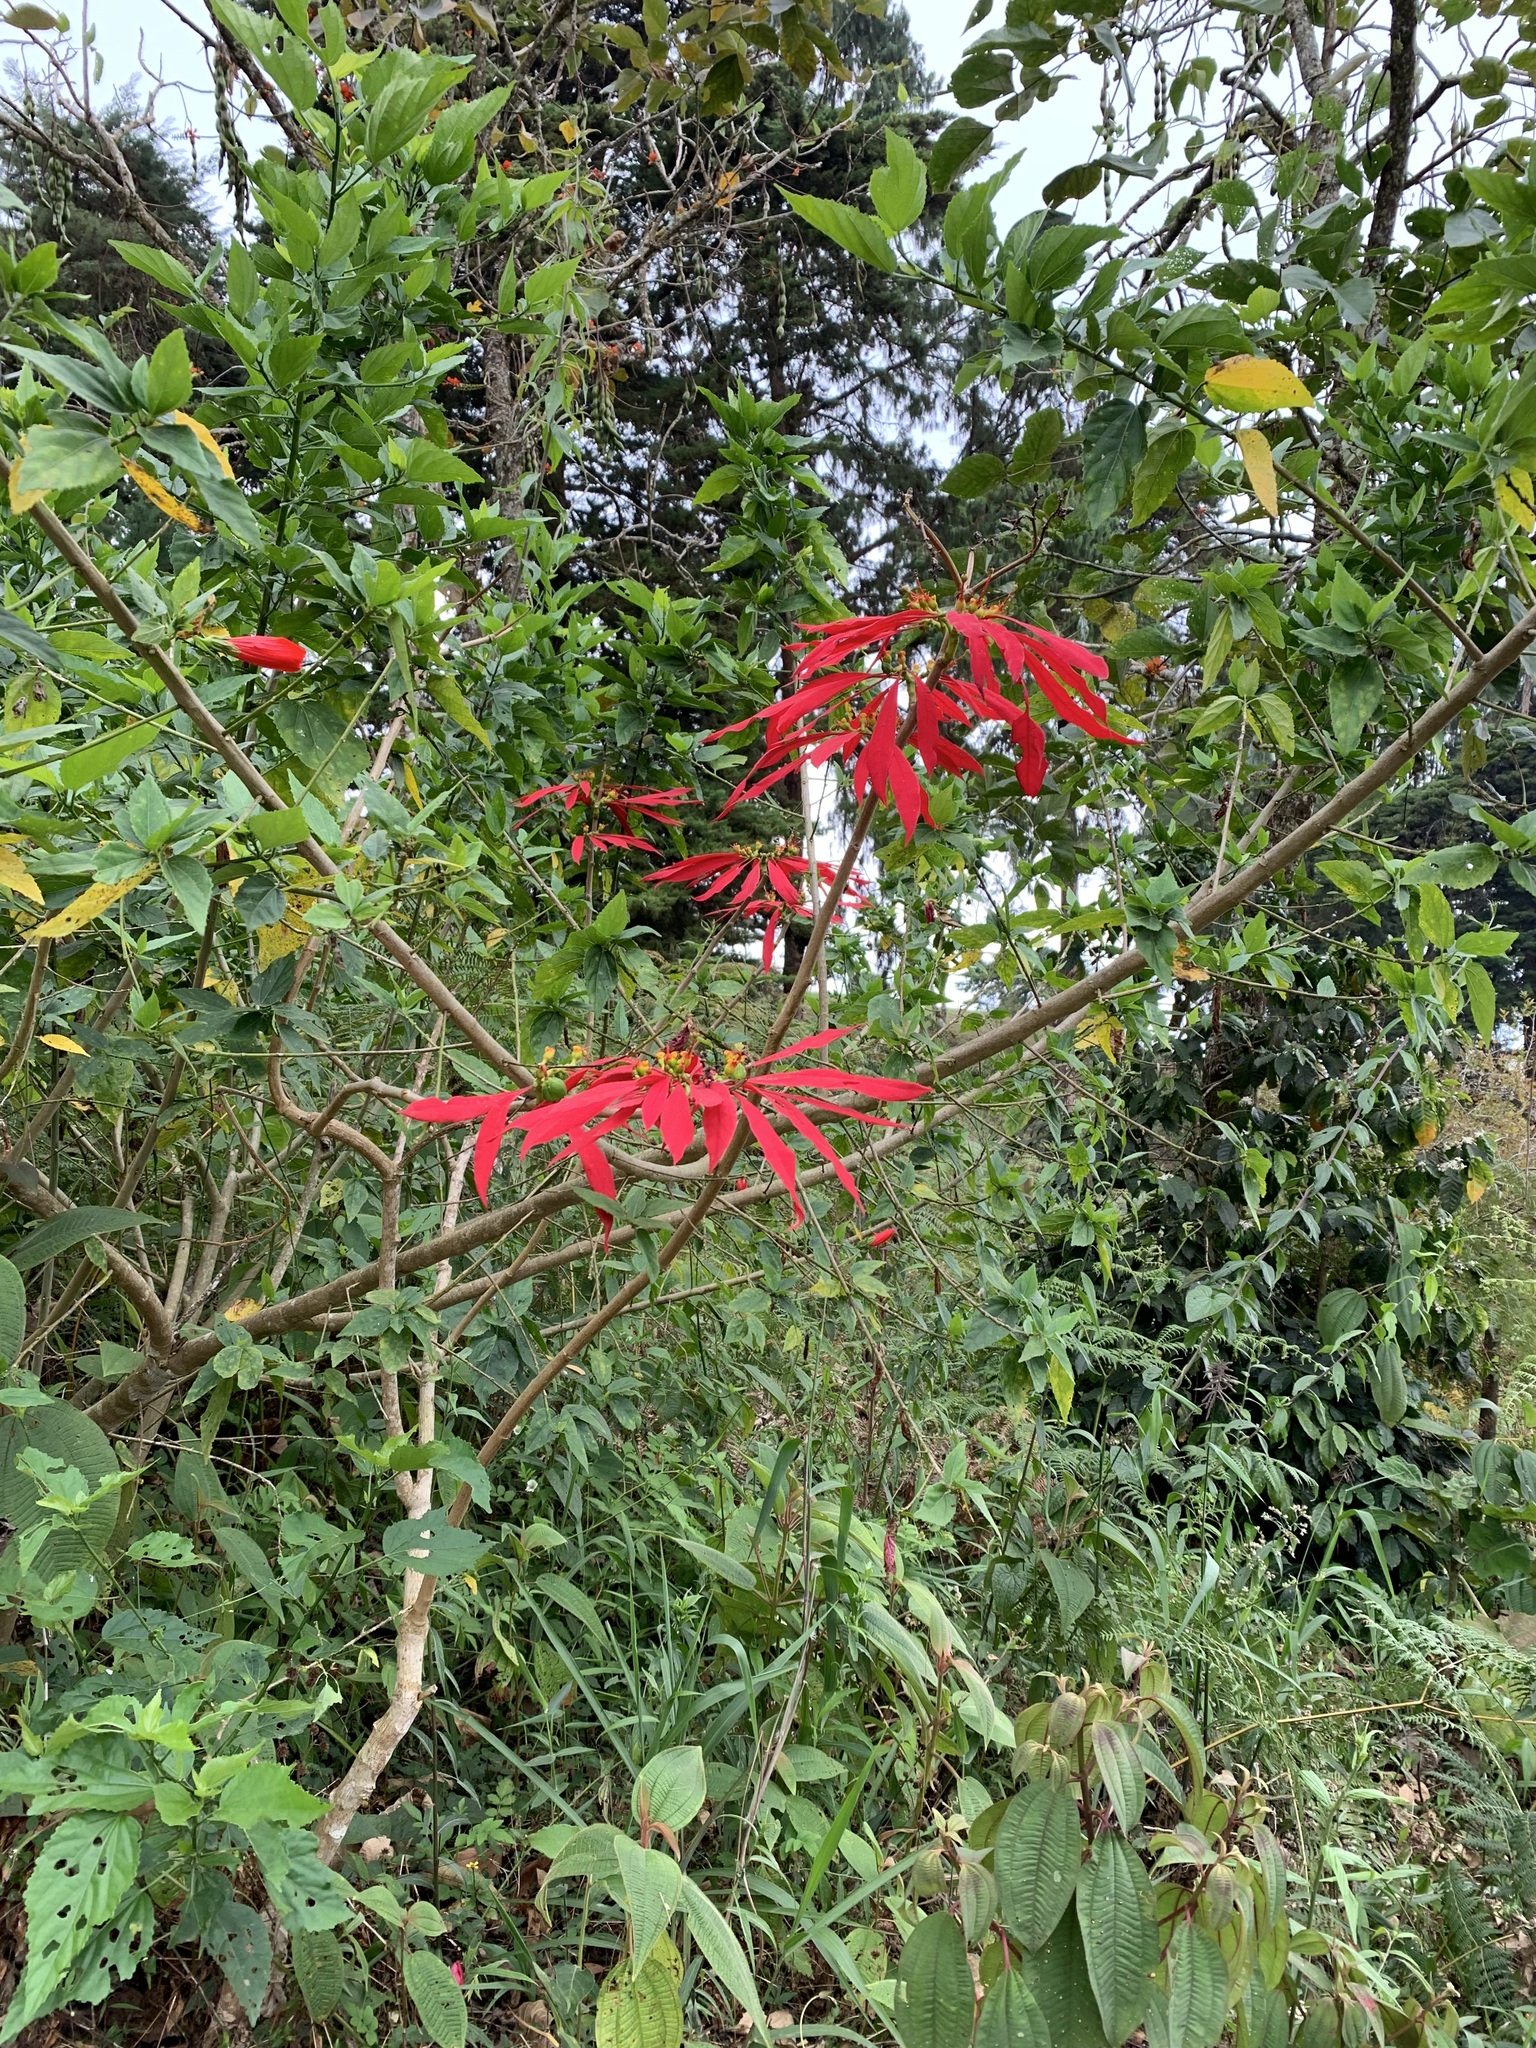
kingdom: Plantae
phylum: Tracheophyta
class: Magnoliopsida
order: Malpighiales
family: Euphorbiaceae
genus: Euphorbia
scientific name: Euphorbia pulcherrima
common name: Christmas-flower
